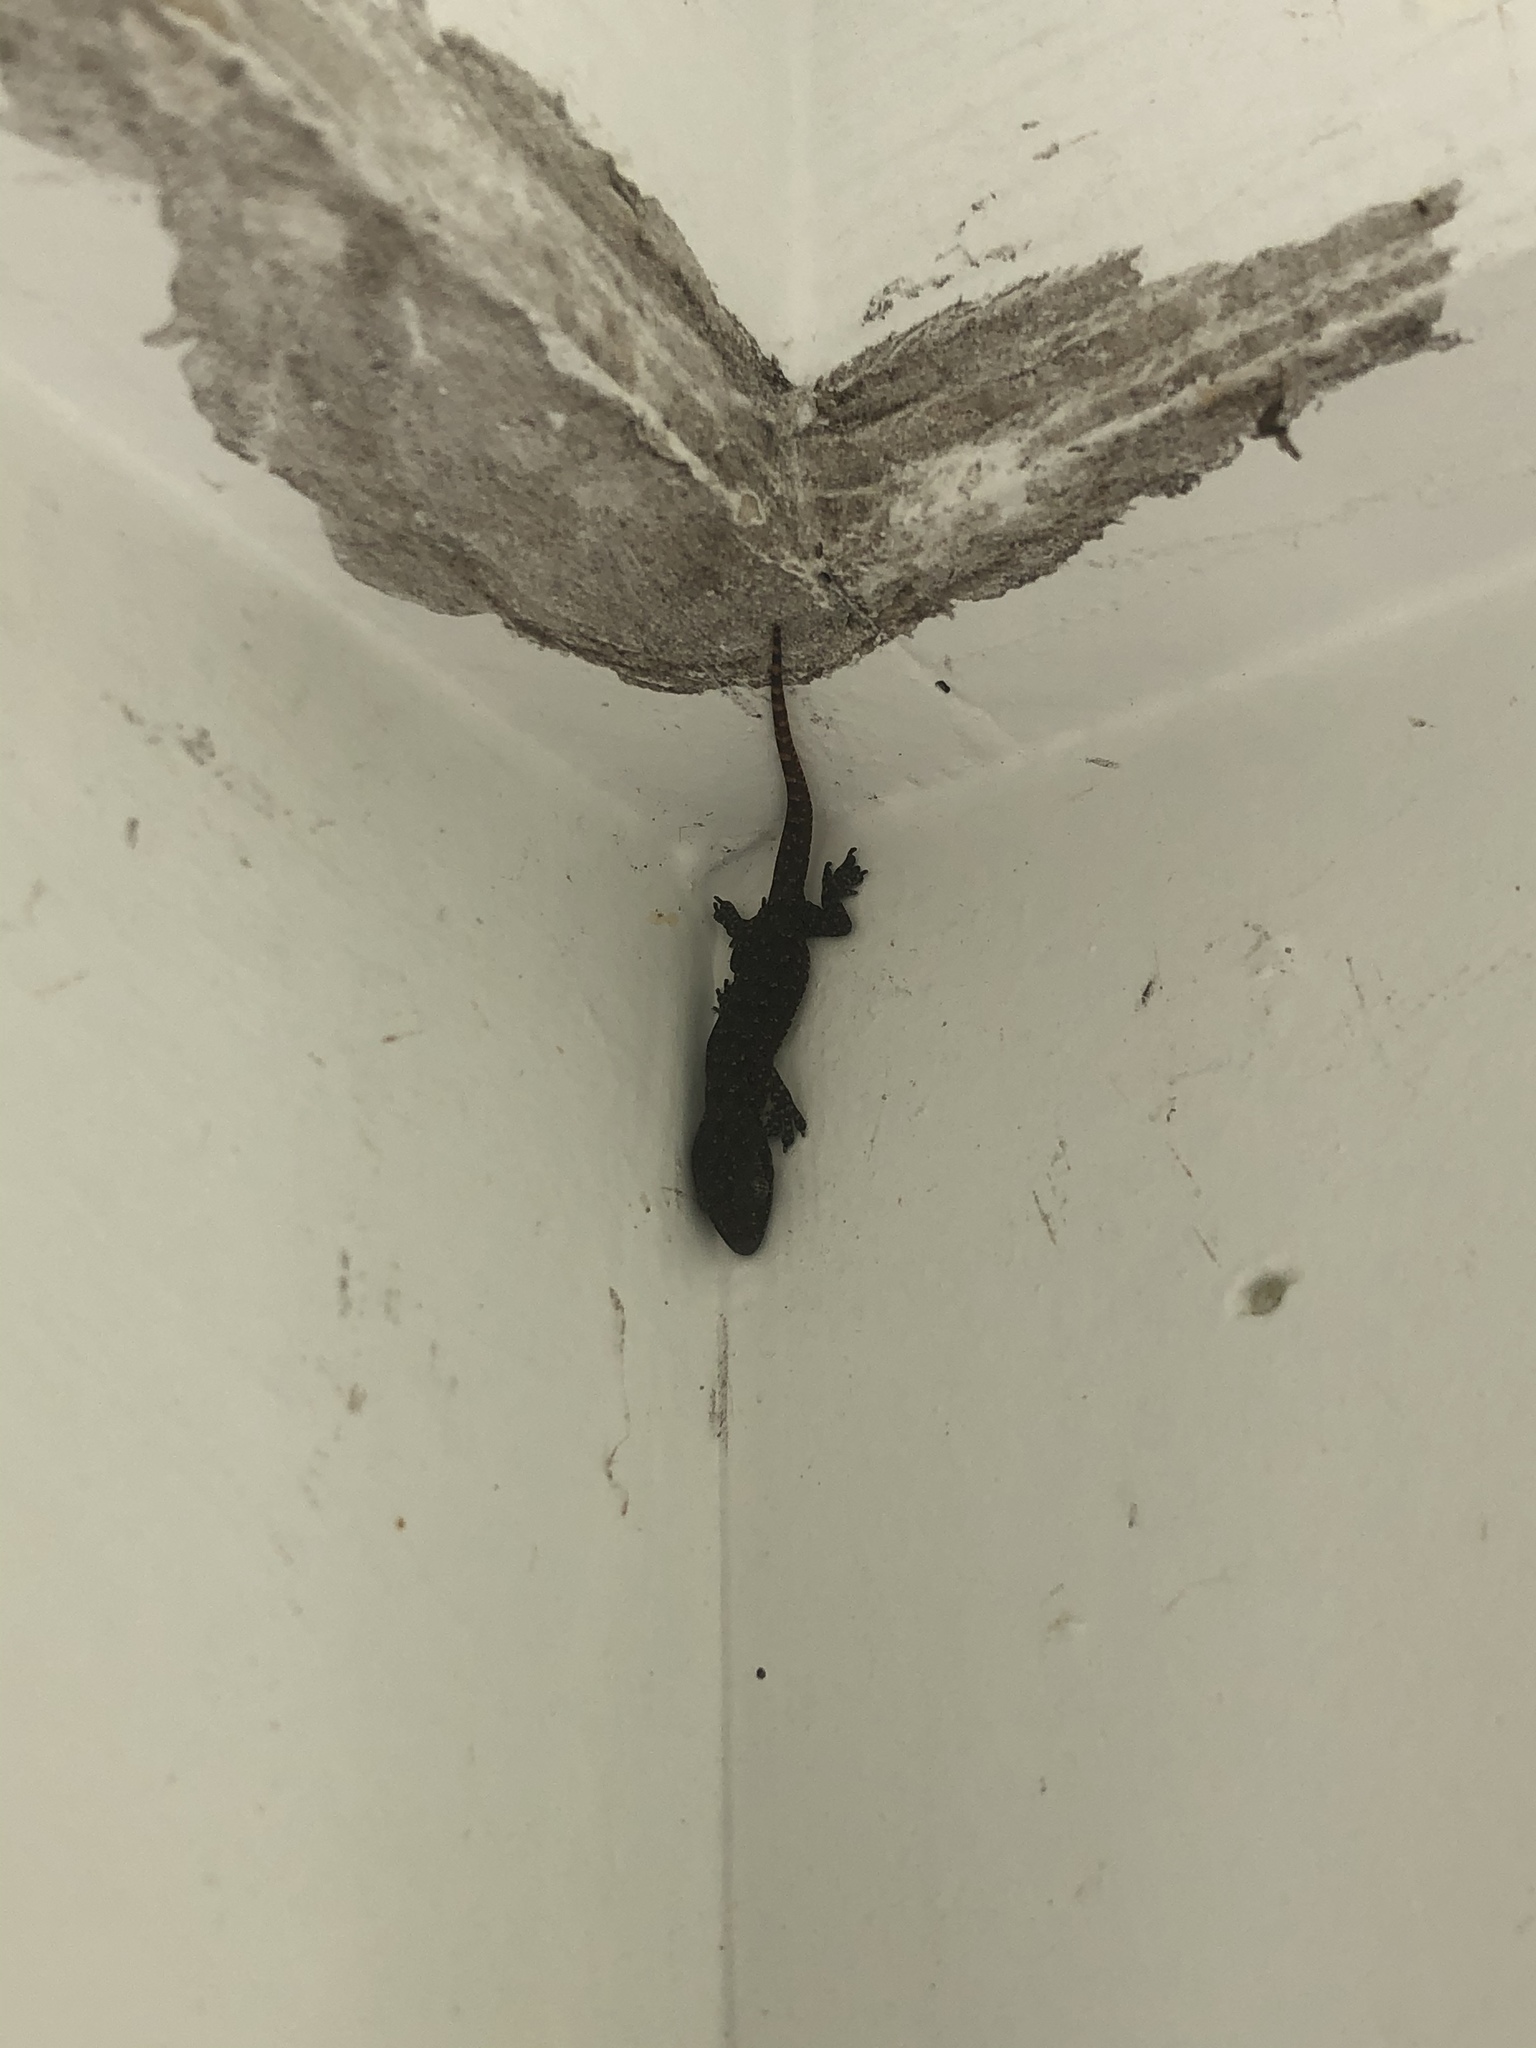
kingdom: Animalia
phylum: Chordata
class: Squamata
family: Gekkonidae
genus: Hemidactylus
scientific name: Hemidactylus garnotii
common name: Indo-pacific gecko
